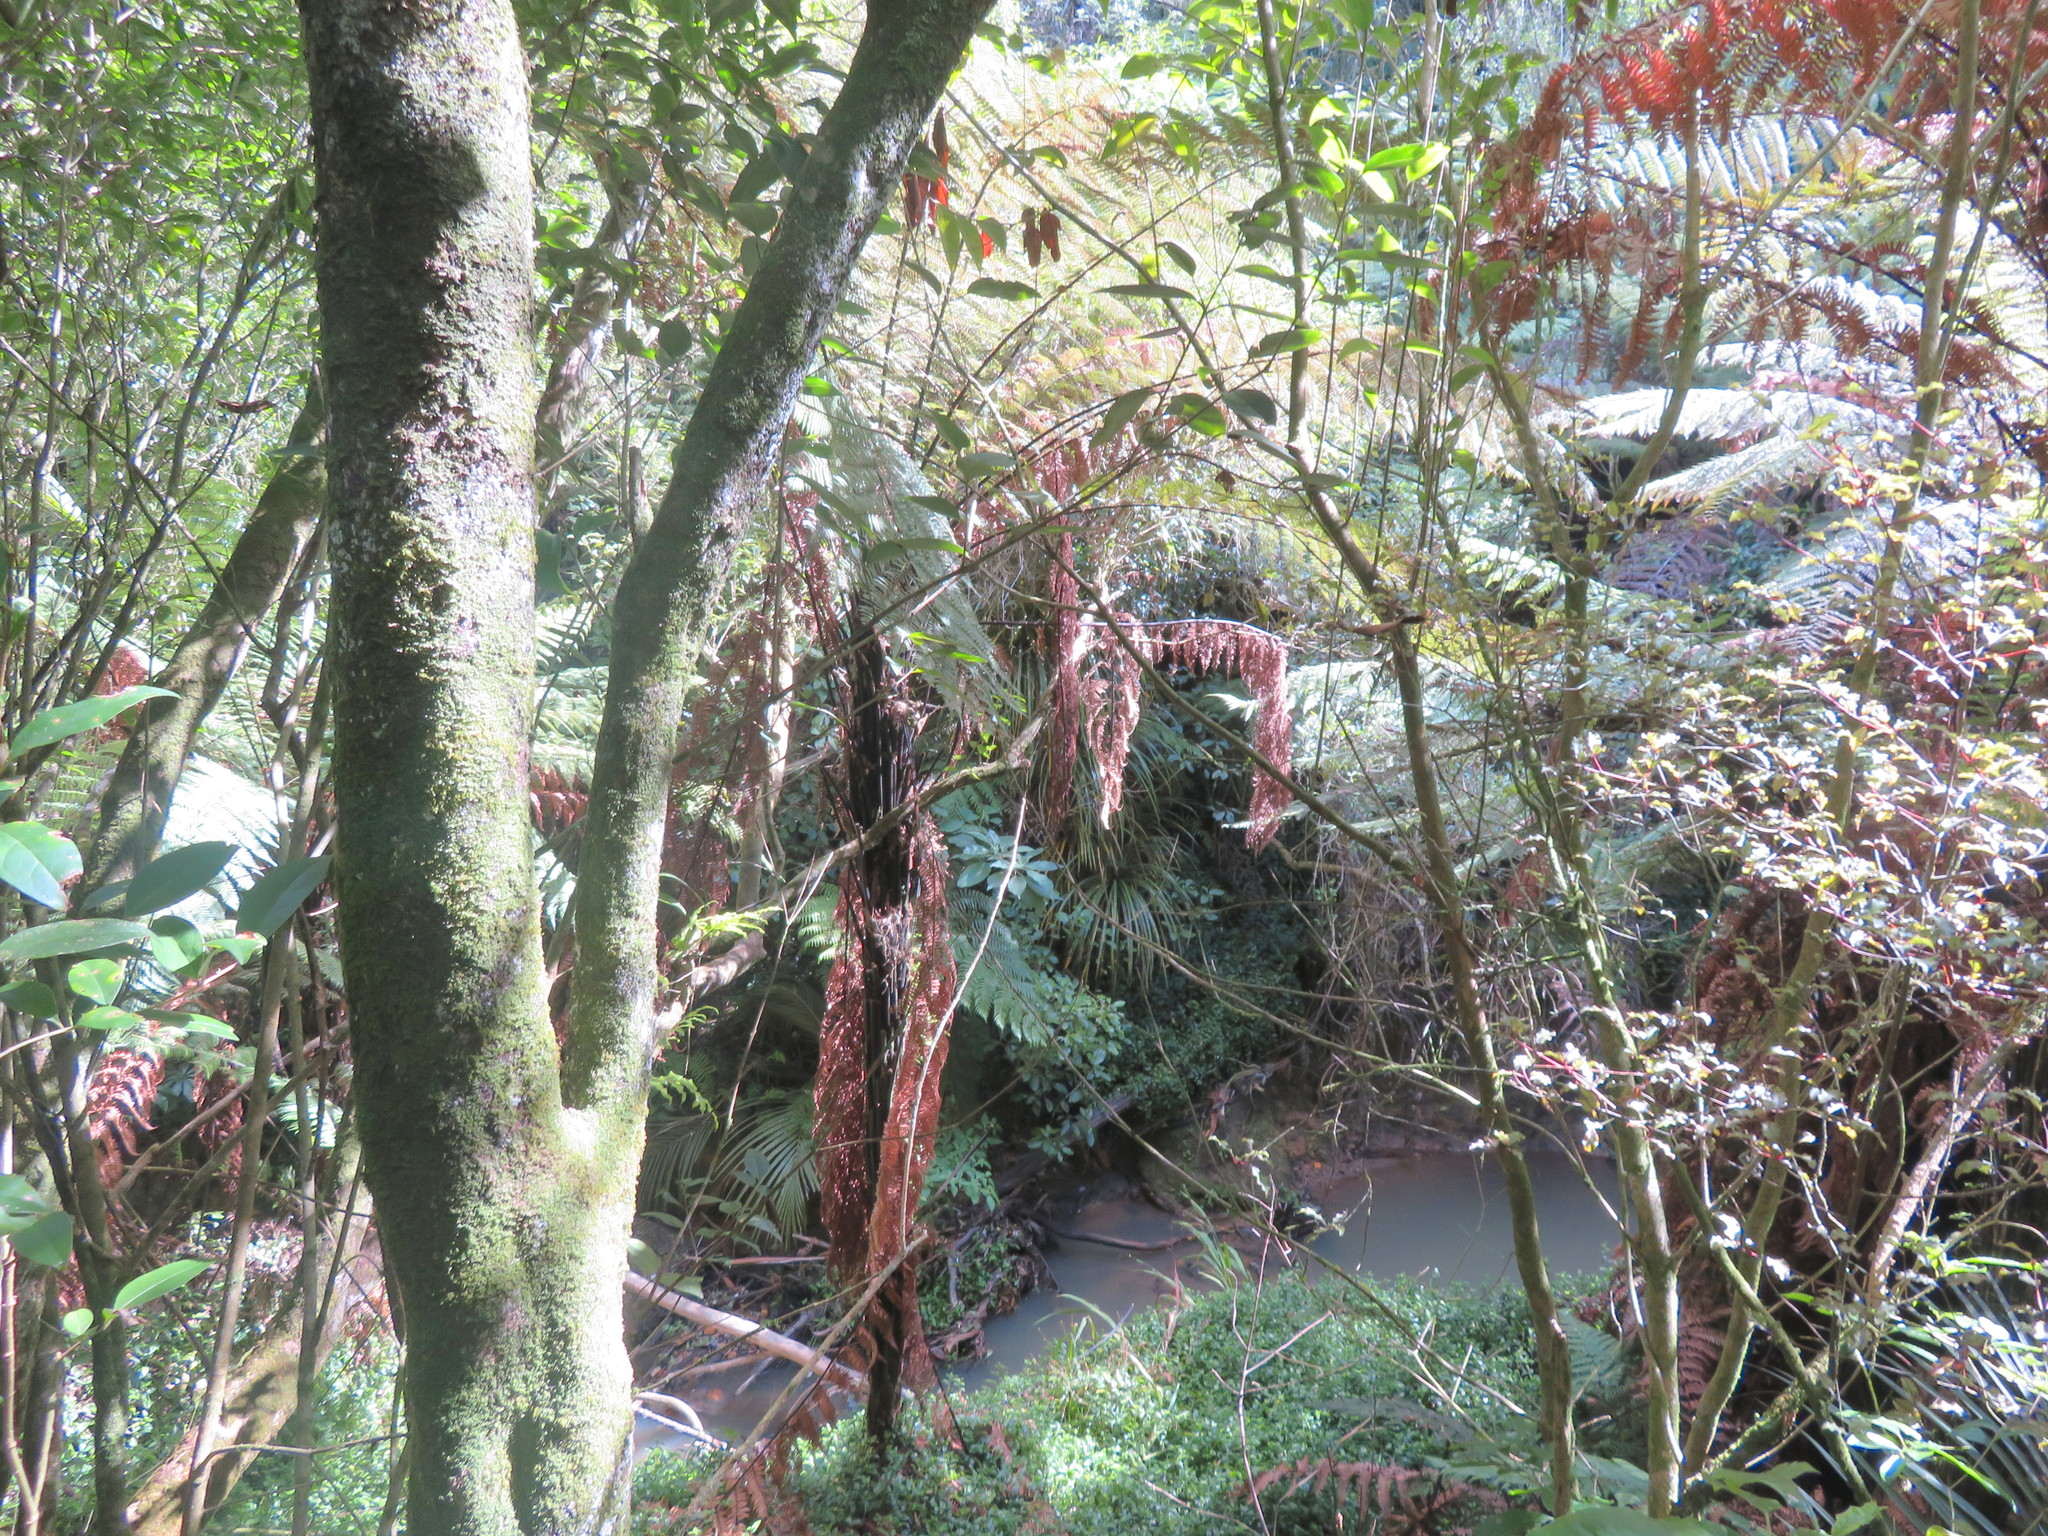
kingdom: Plantae
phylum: Tracheophyta
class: Magnoliopsida
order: Lamiales
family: Oleaceae
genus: Ligustrum
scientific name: Ligustrum lucidum
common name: Glossy privet
